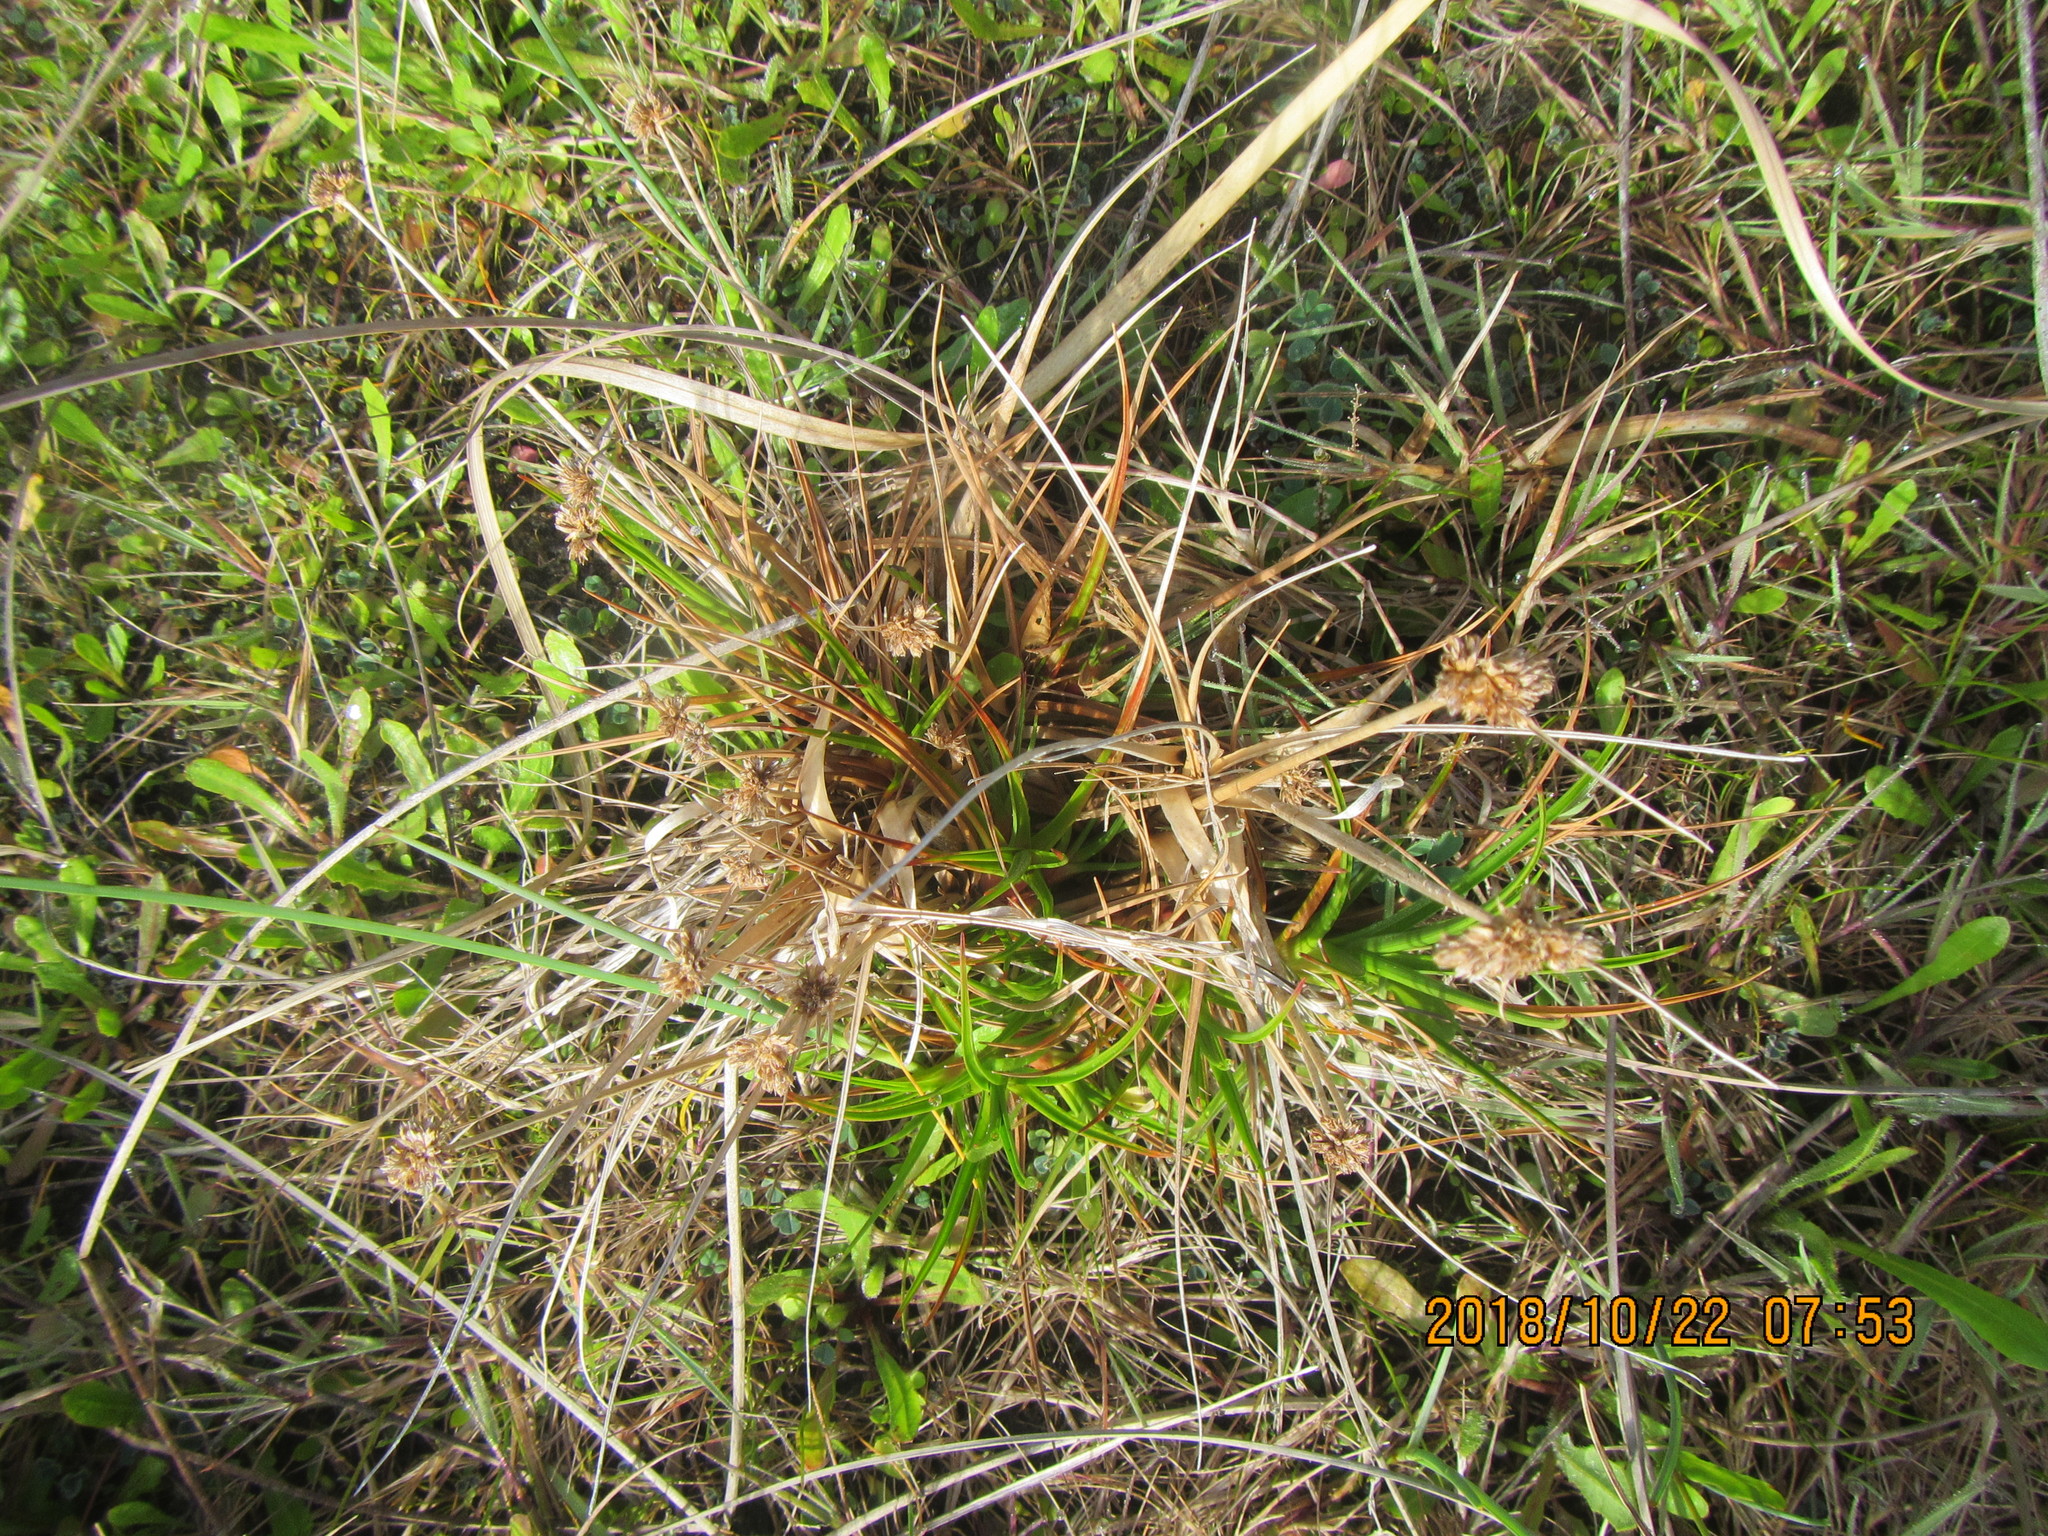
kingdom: Plantae
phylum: Tracheophyta
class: Liliopsida
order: Poales
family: Juncaceae
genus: Juncus
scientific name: Juncus caespiticius
